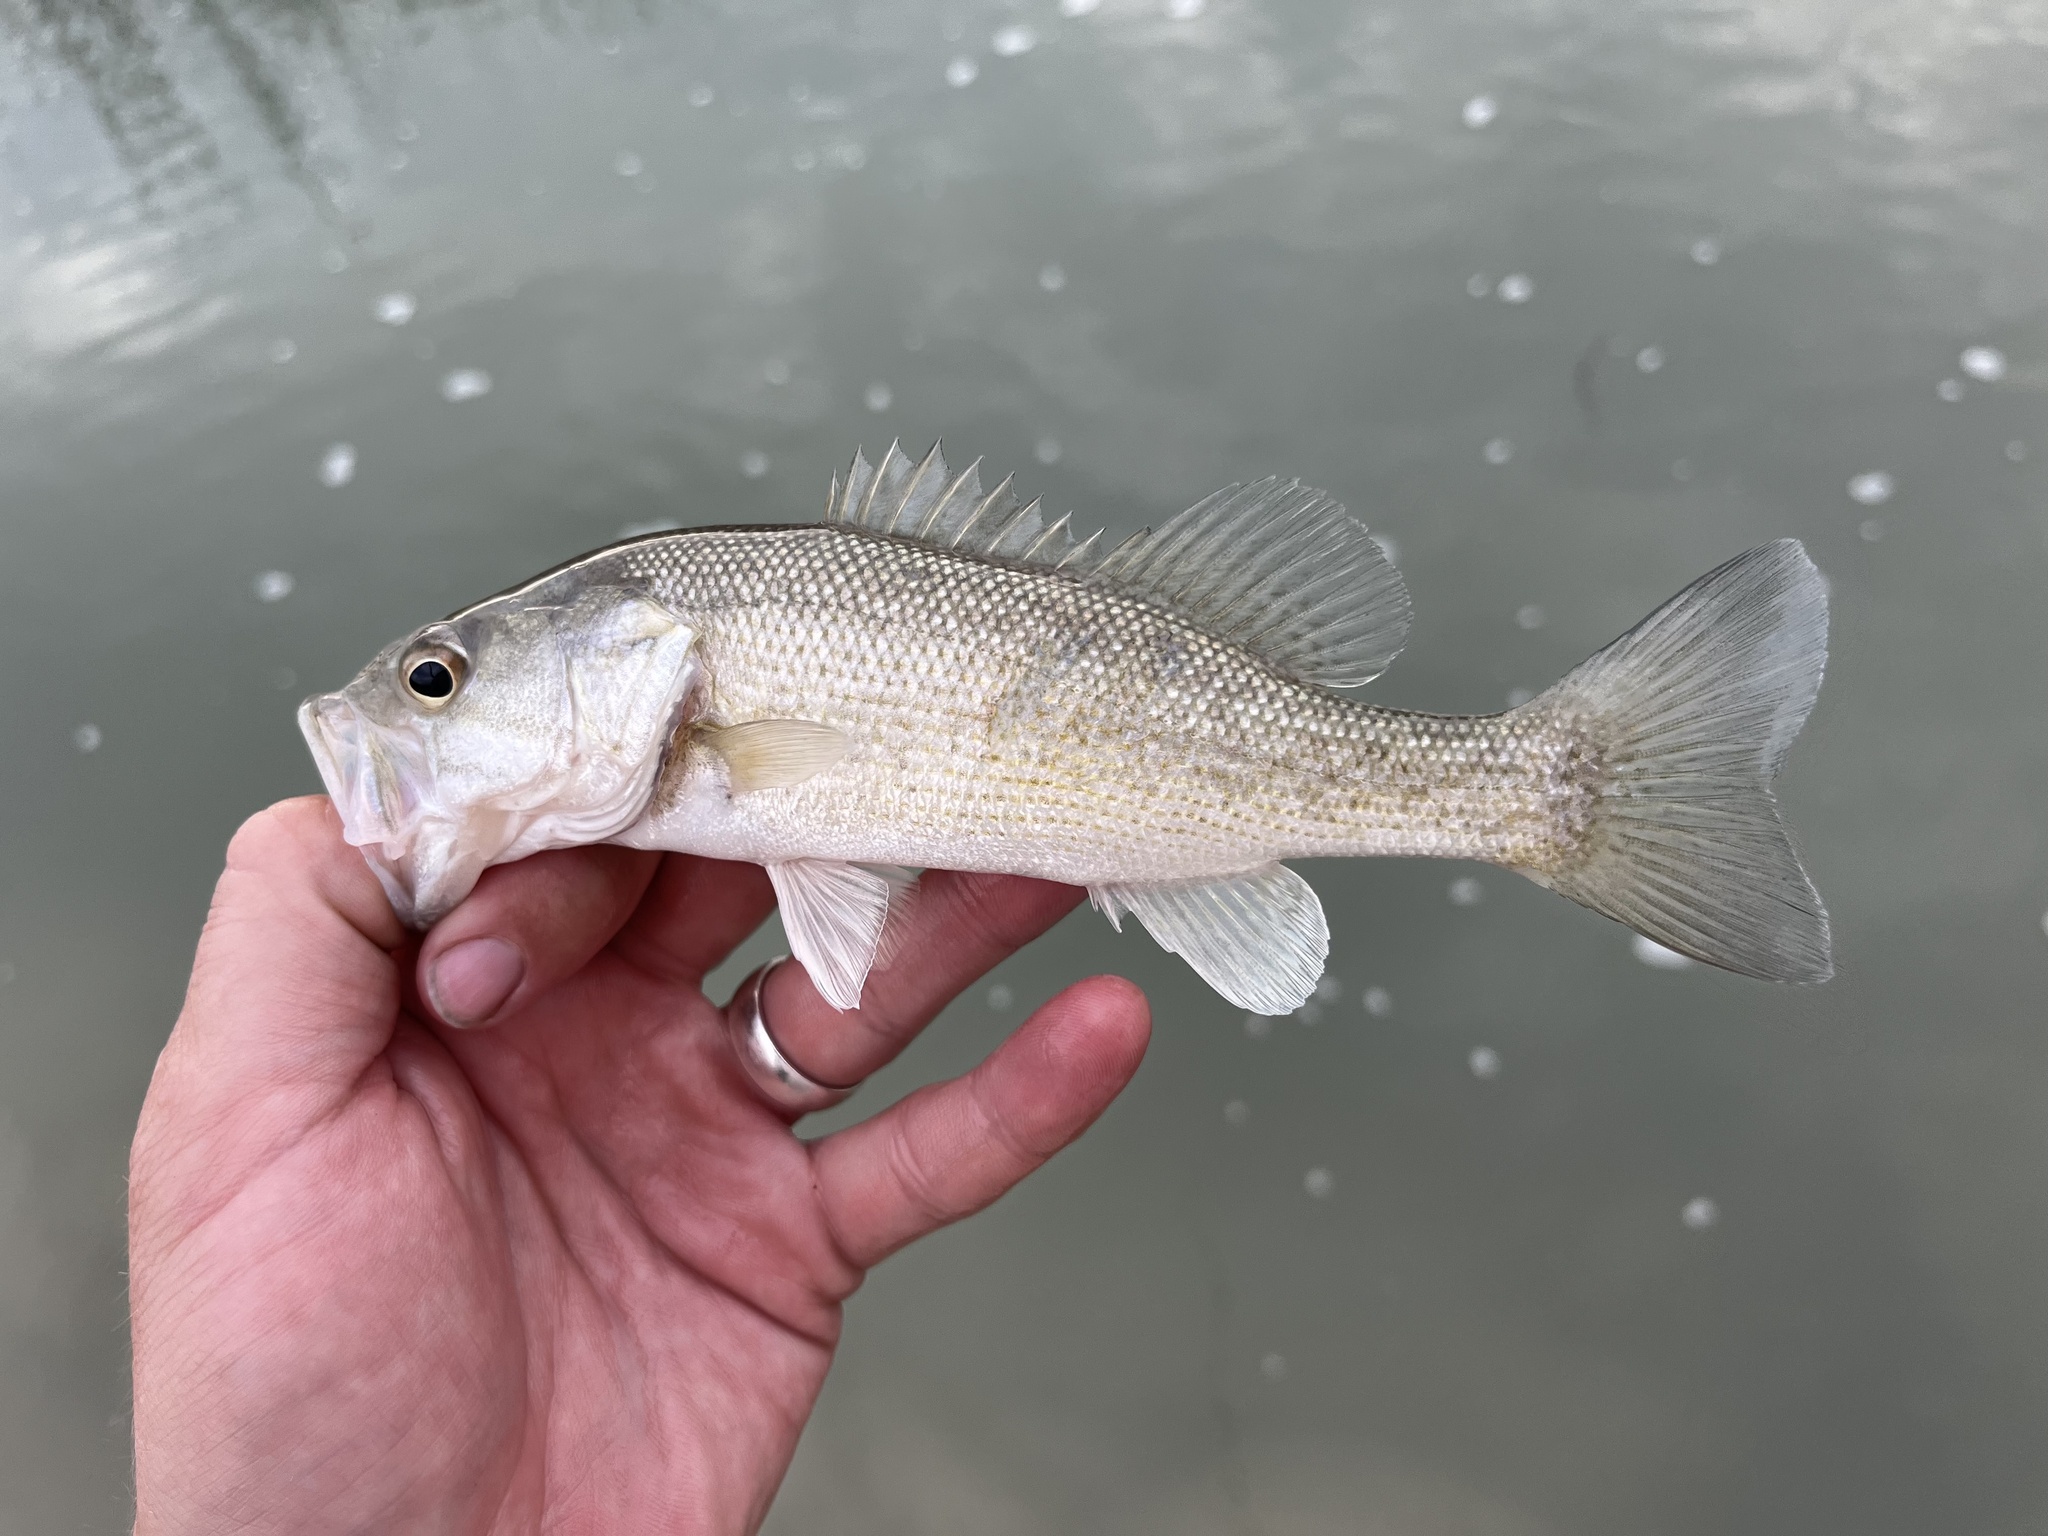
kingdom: Animalia
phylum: Chordata
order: Perciformes
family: Centrarchidae
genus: Micropterus
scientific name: Micropterus treculii
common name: Guadalupe bass
